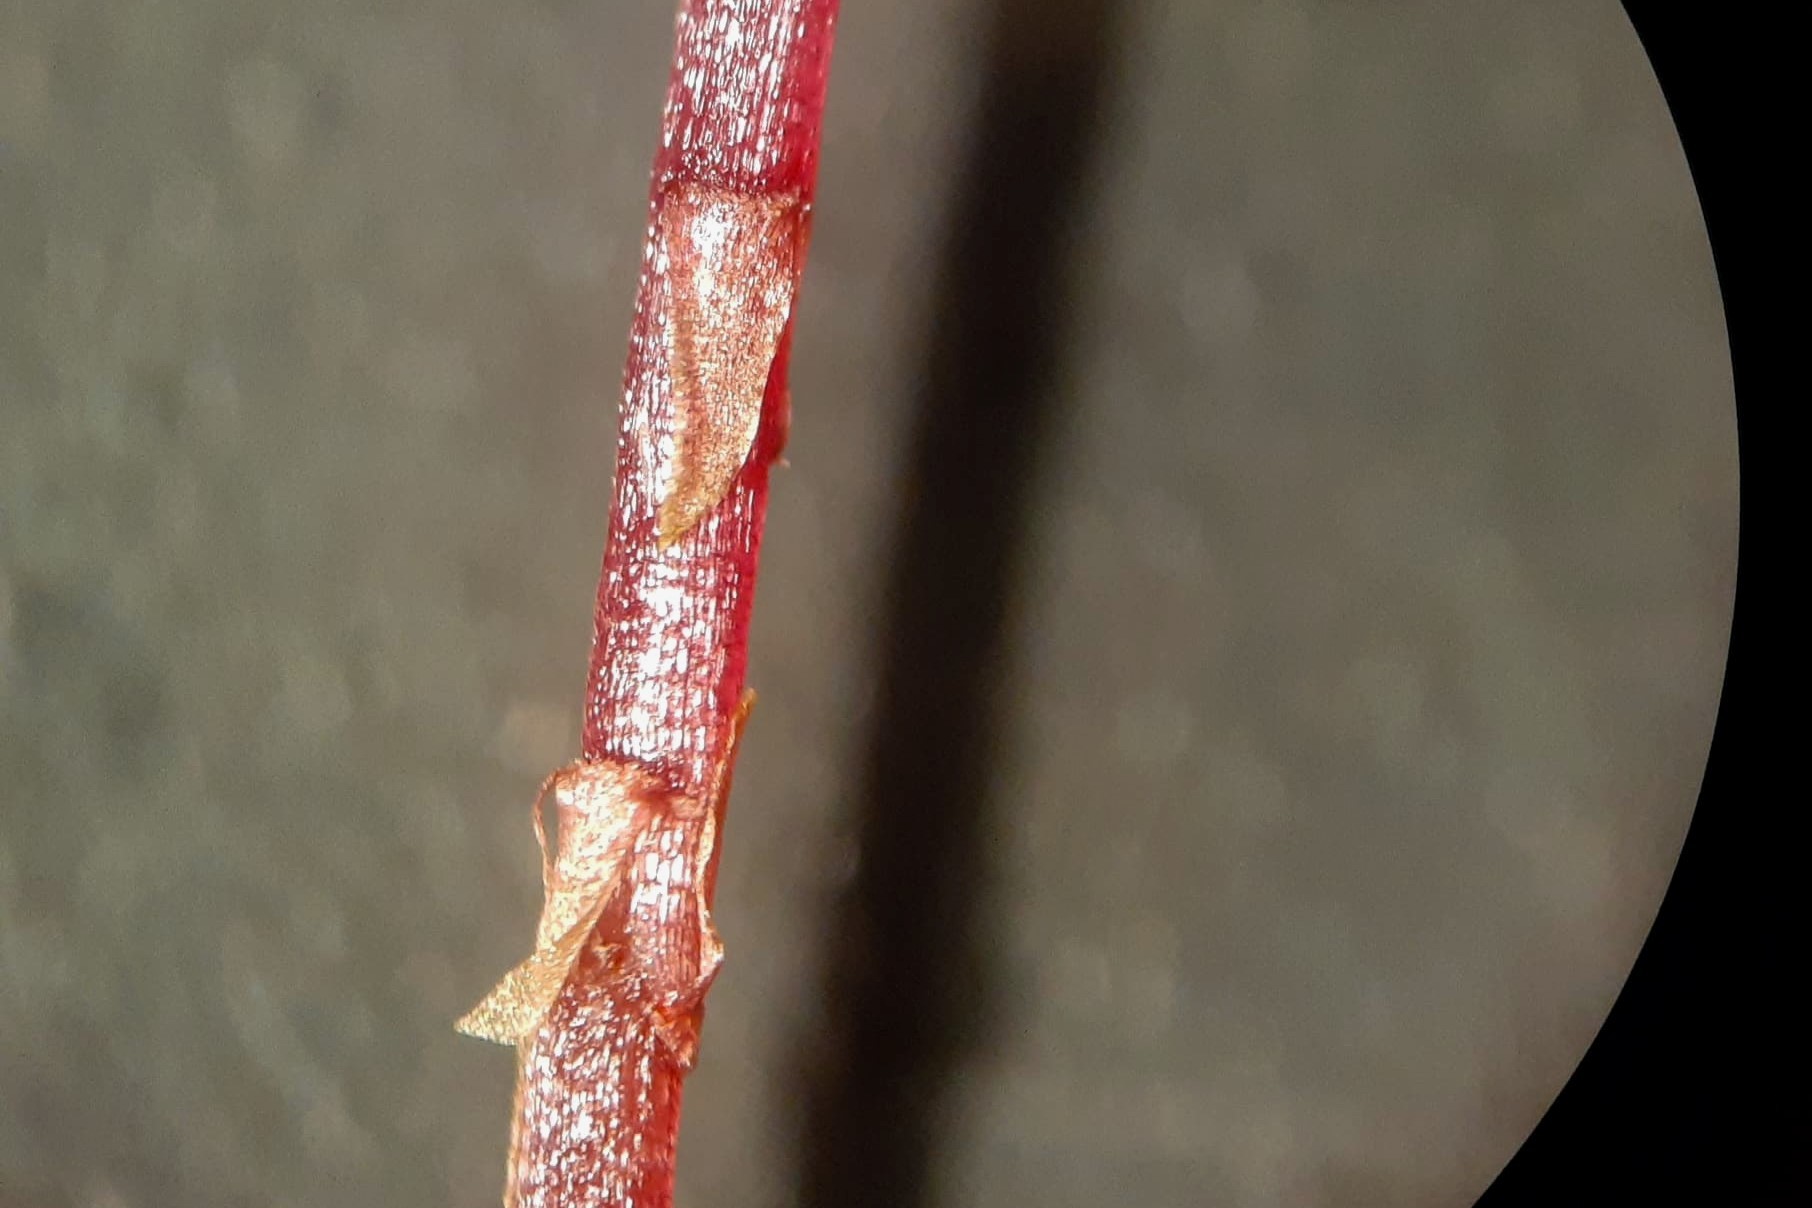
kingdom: Plantae
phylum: Bryophyta
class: Sphagnopsida
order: Sphagnales
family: Sphagnaceae
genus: Sphagnum
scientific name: Sphagnum capillifolium
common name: Small red peat moss
